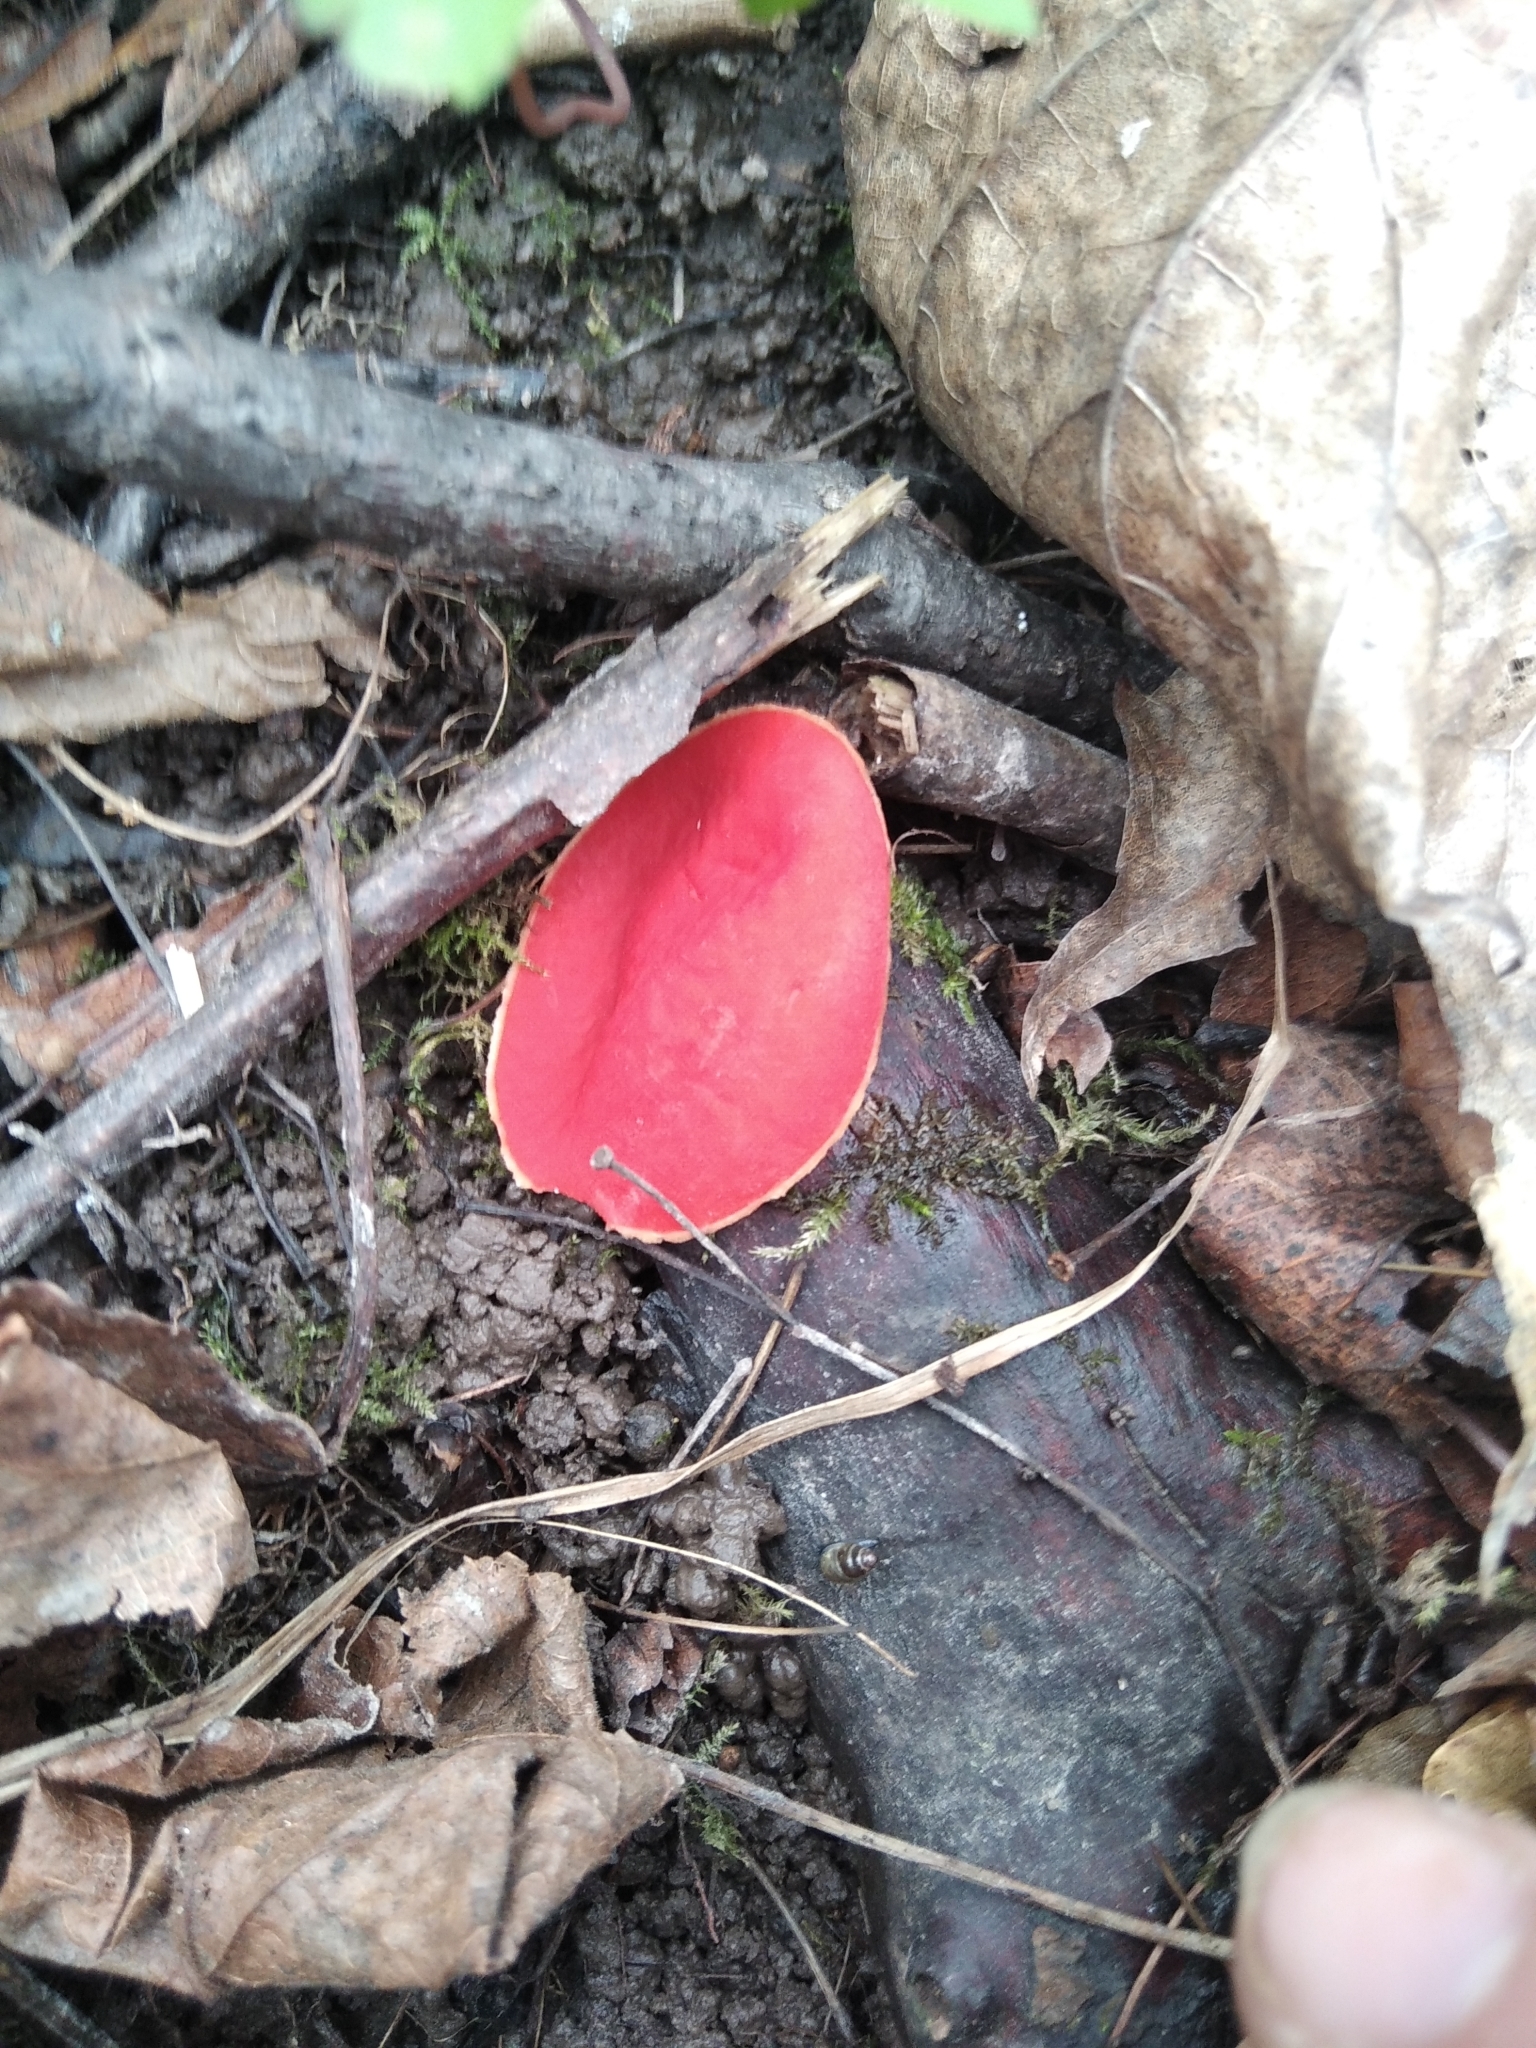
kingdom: Fungi
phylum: Ascomycota
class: Pezizomycetes
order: Pezizales
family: Sarcoscyphaceae
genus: Sarcoscypha
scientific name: Sarcoscypha austriaca
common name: Scarlet elfcup
